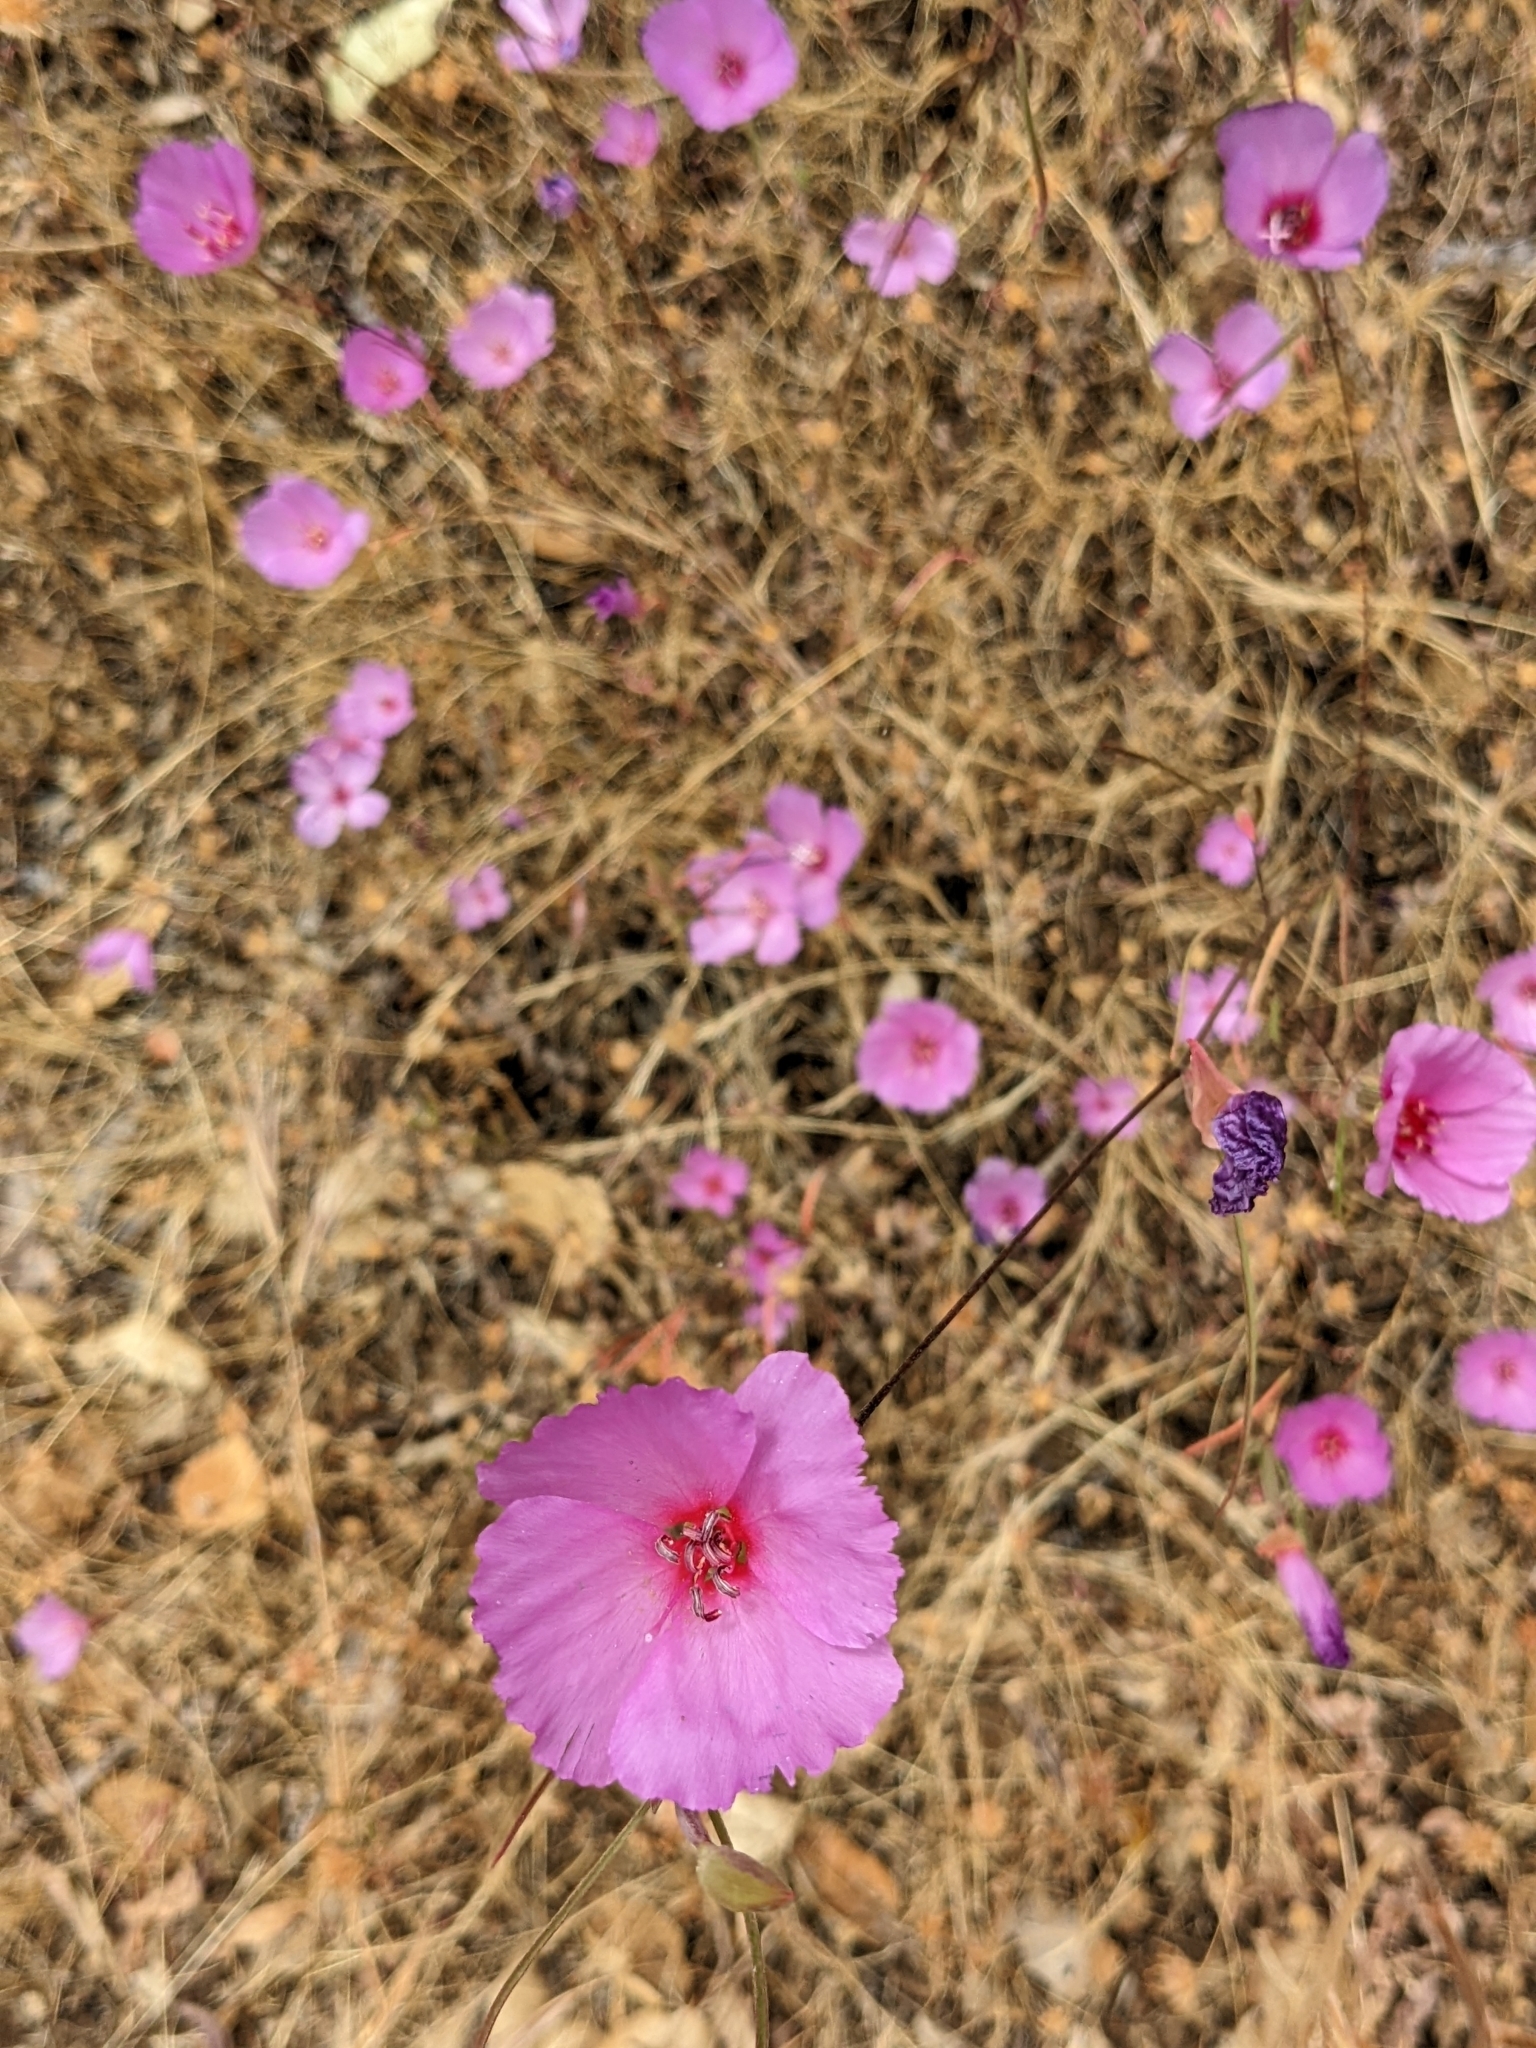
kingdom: Plantae
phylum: Tracheophyta
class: Magnoliopsida
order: Myrtales
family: Onagraceae
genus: Clarkia
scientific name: Clarkia rubicunda
